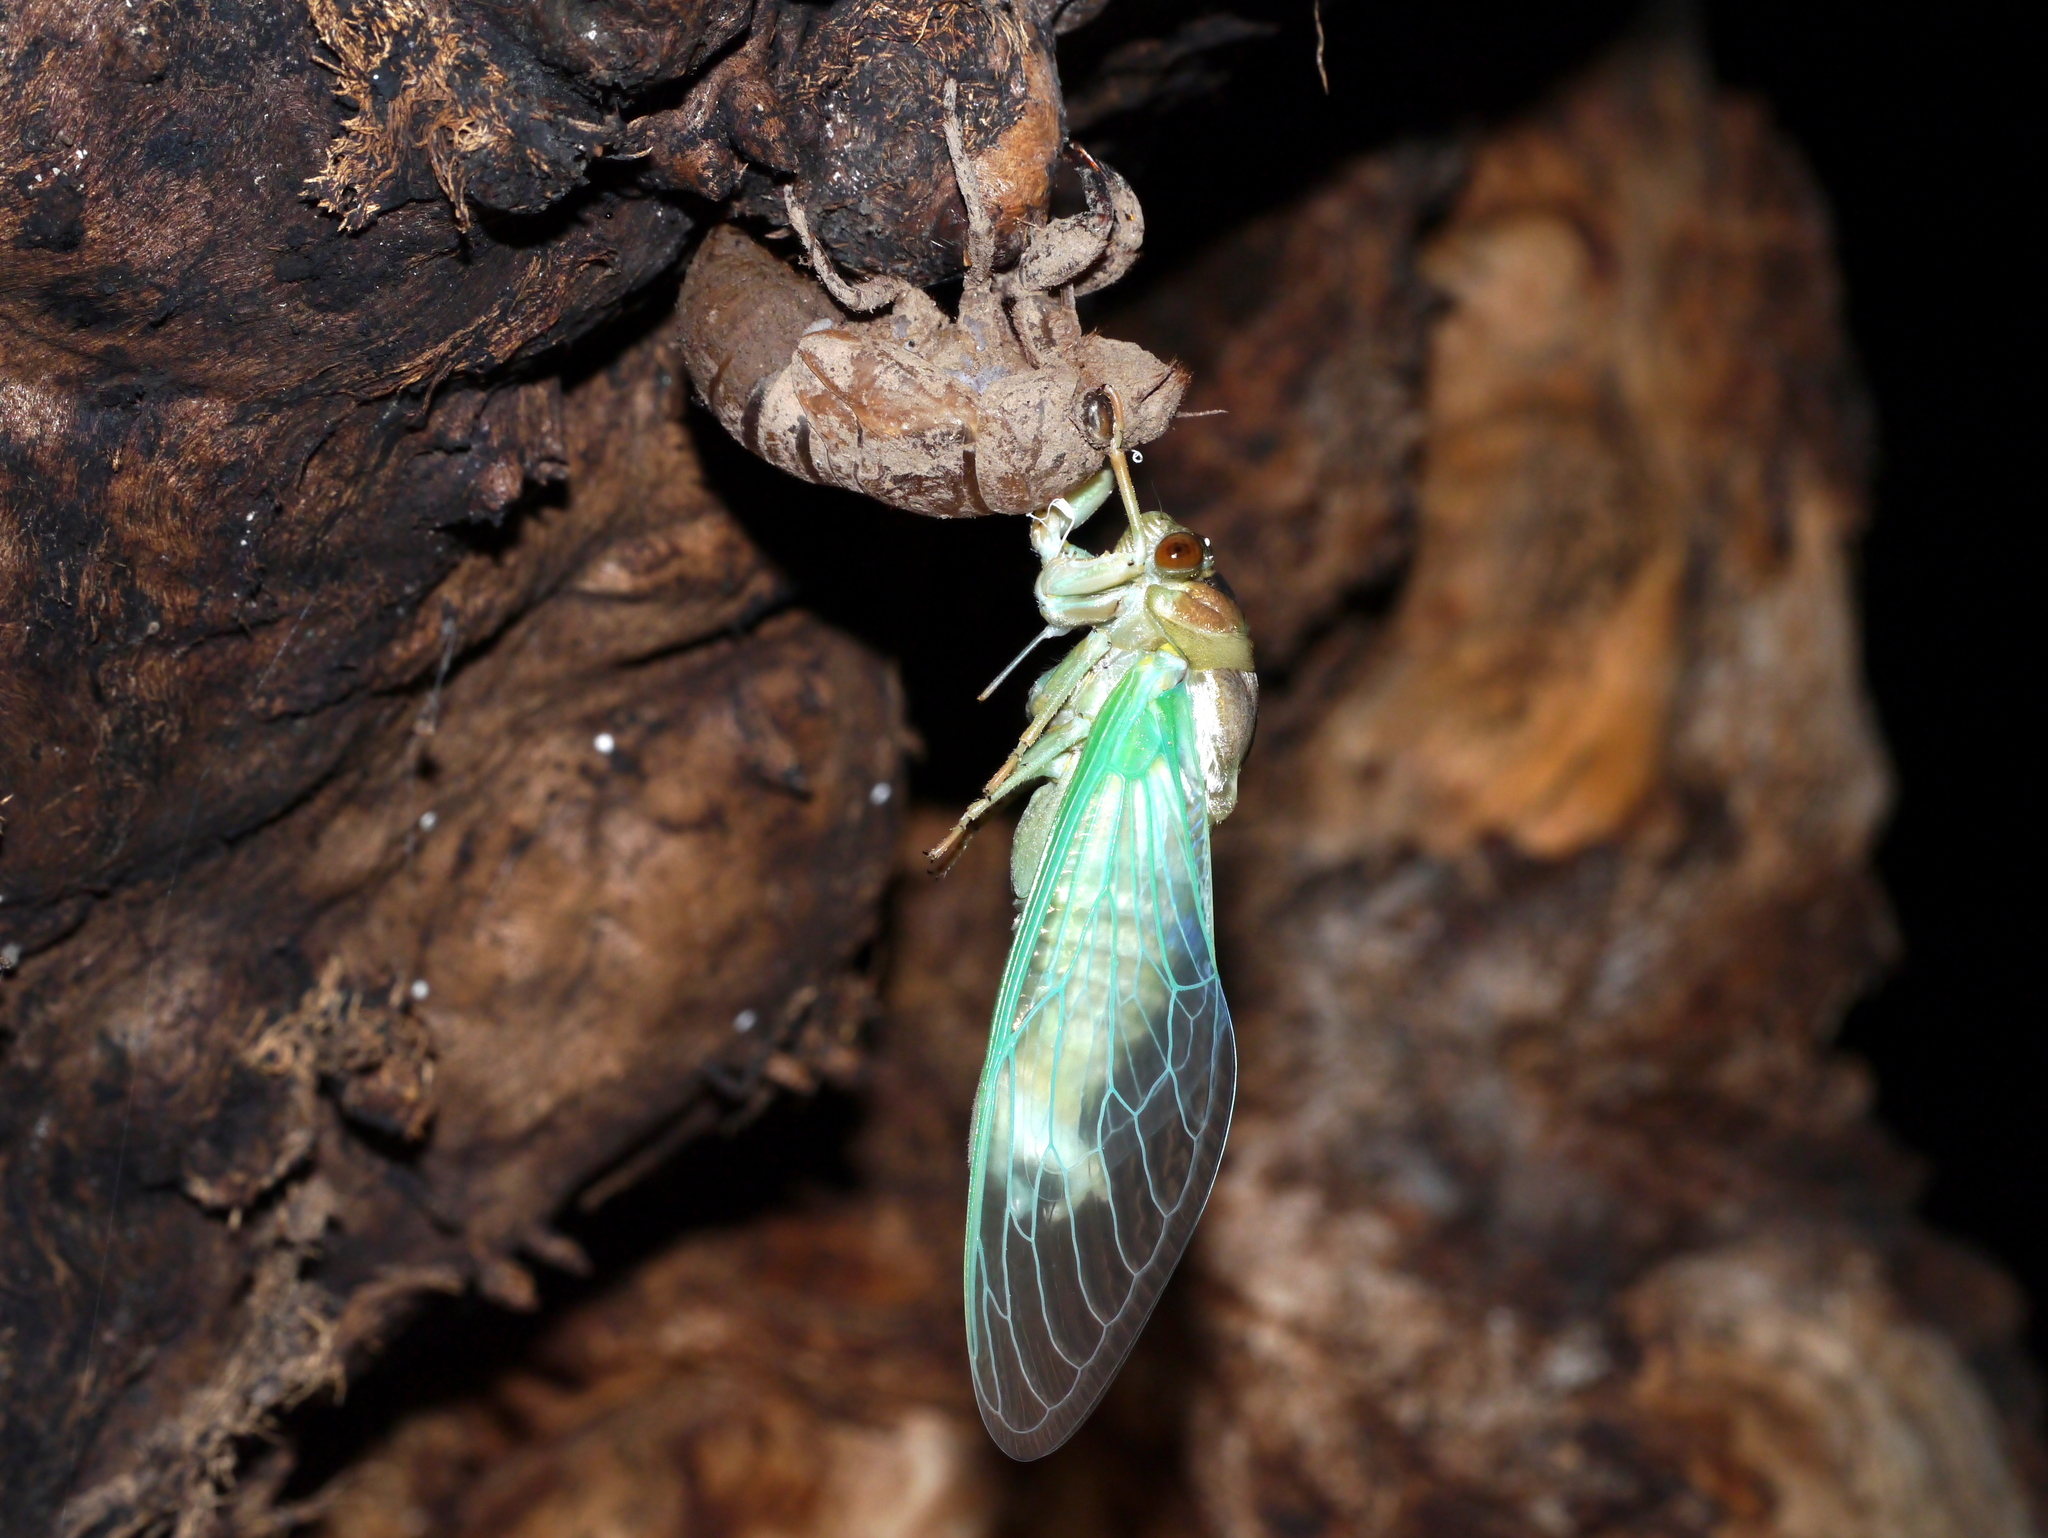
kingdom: Animalia
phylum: Arthropoda
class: Insecta
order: Hemiptera
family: Cicadidae
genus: Megatibicen
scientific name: Megatibicen cultriformis
